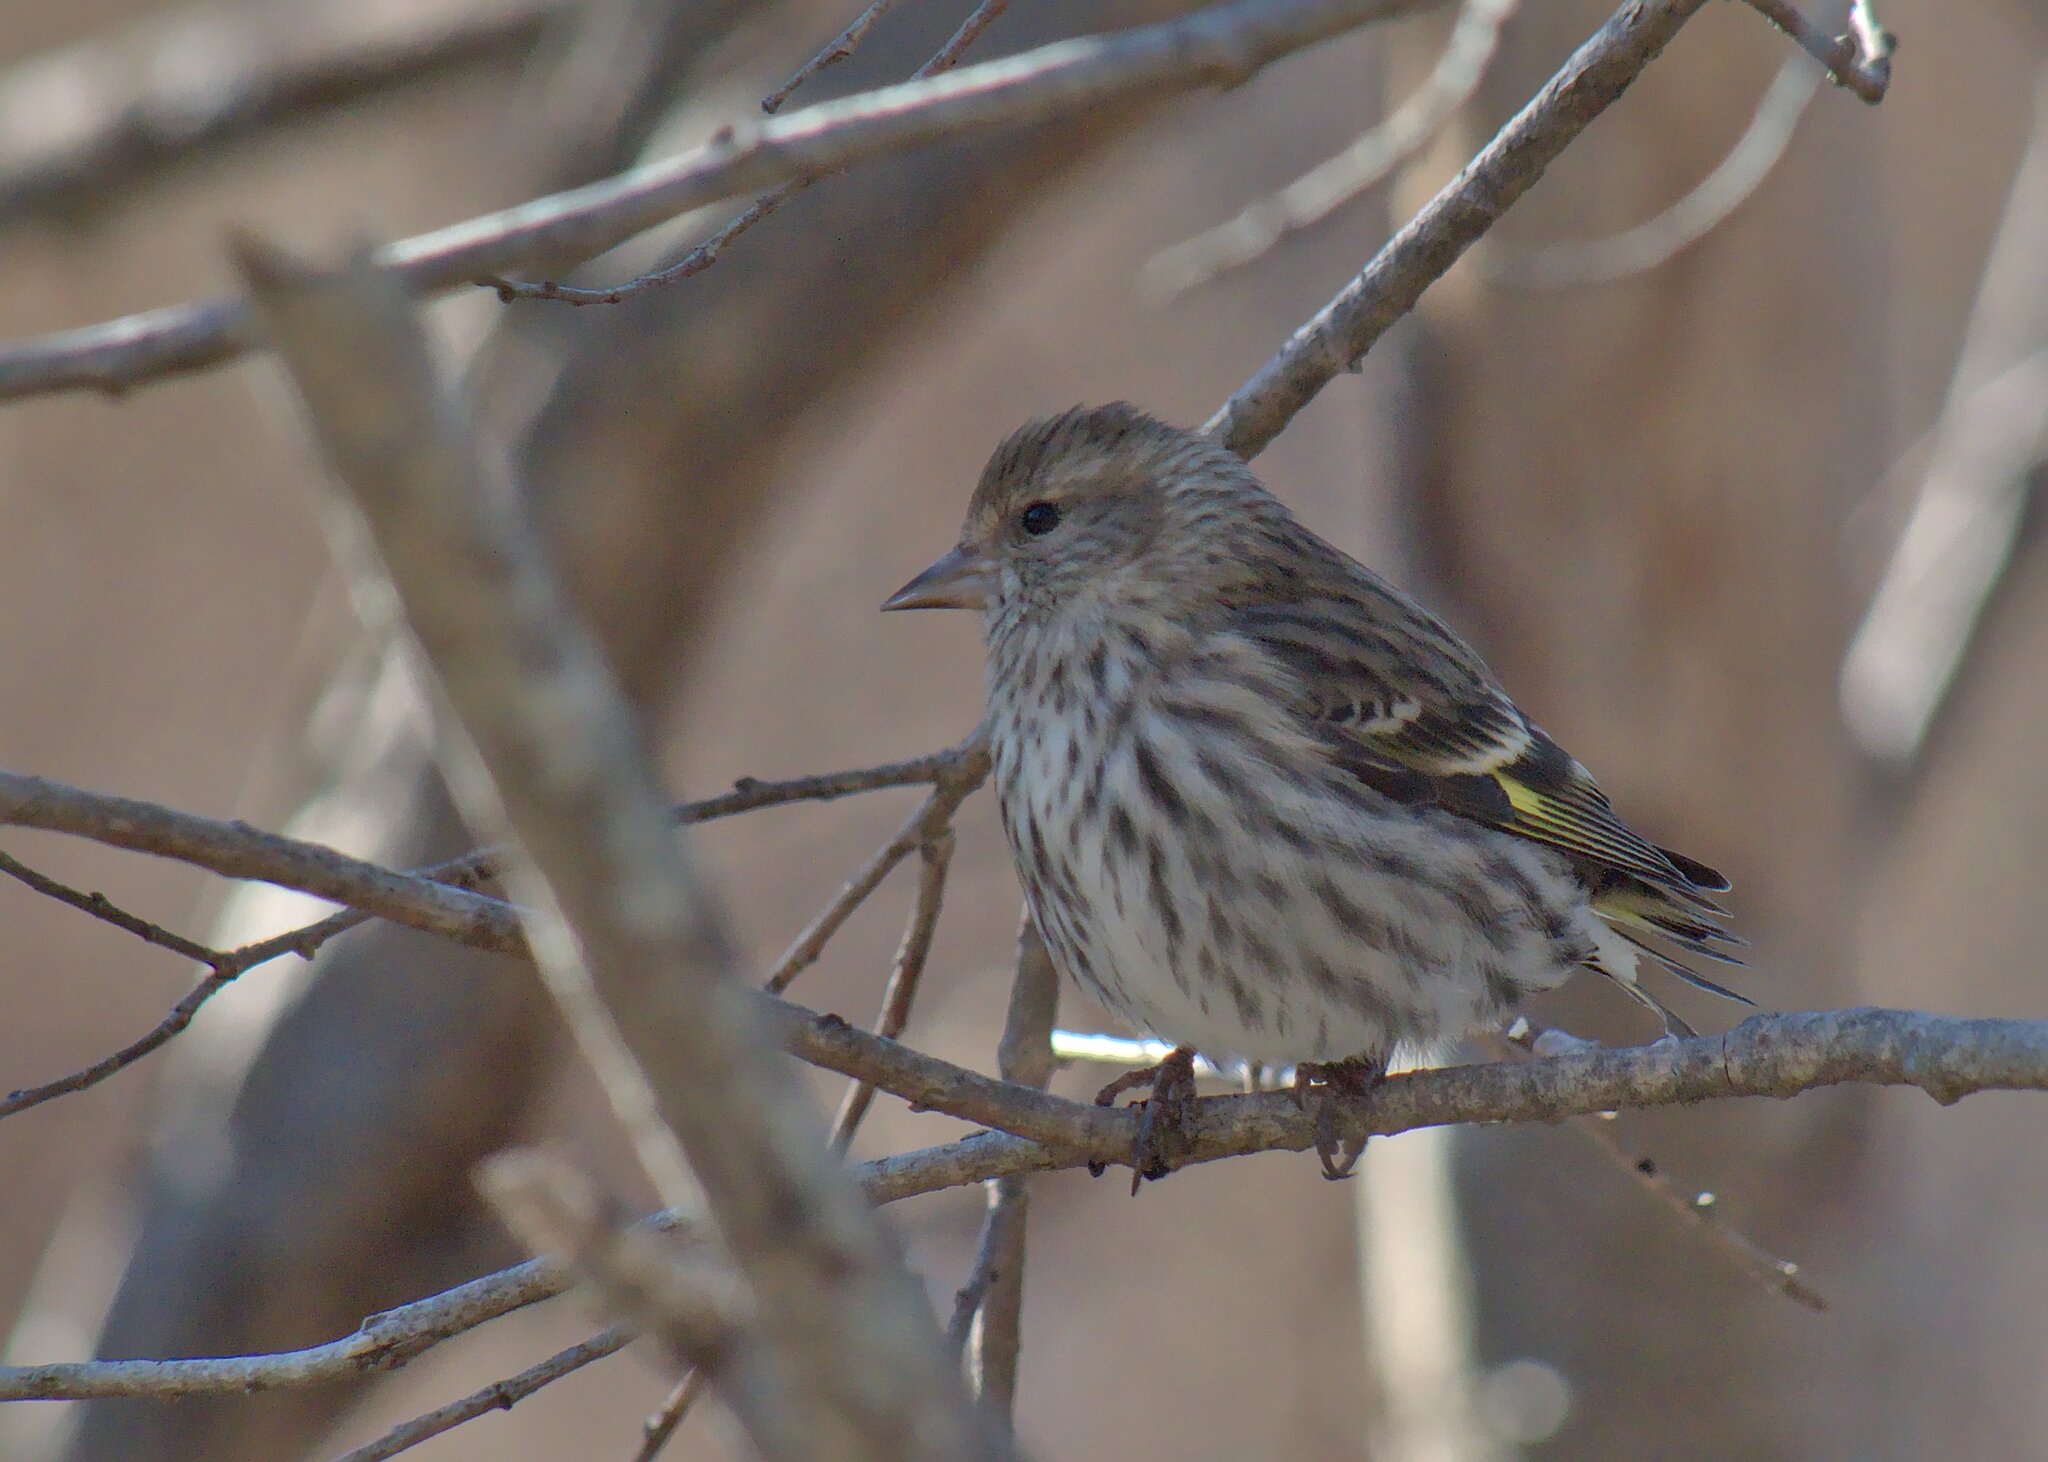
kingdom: Animalia
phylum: Chordata
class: Aves
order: Passeriformes
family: Fringillidae
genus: Spinus
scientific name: Spinus pinus
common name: Pine siskin
